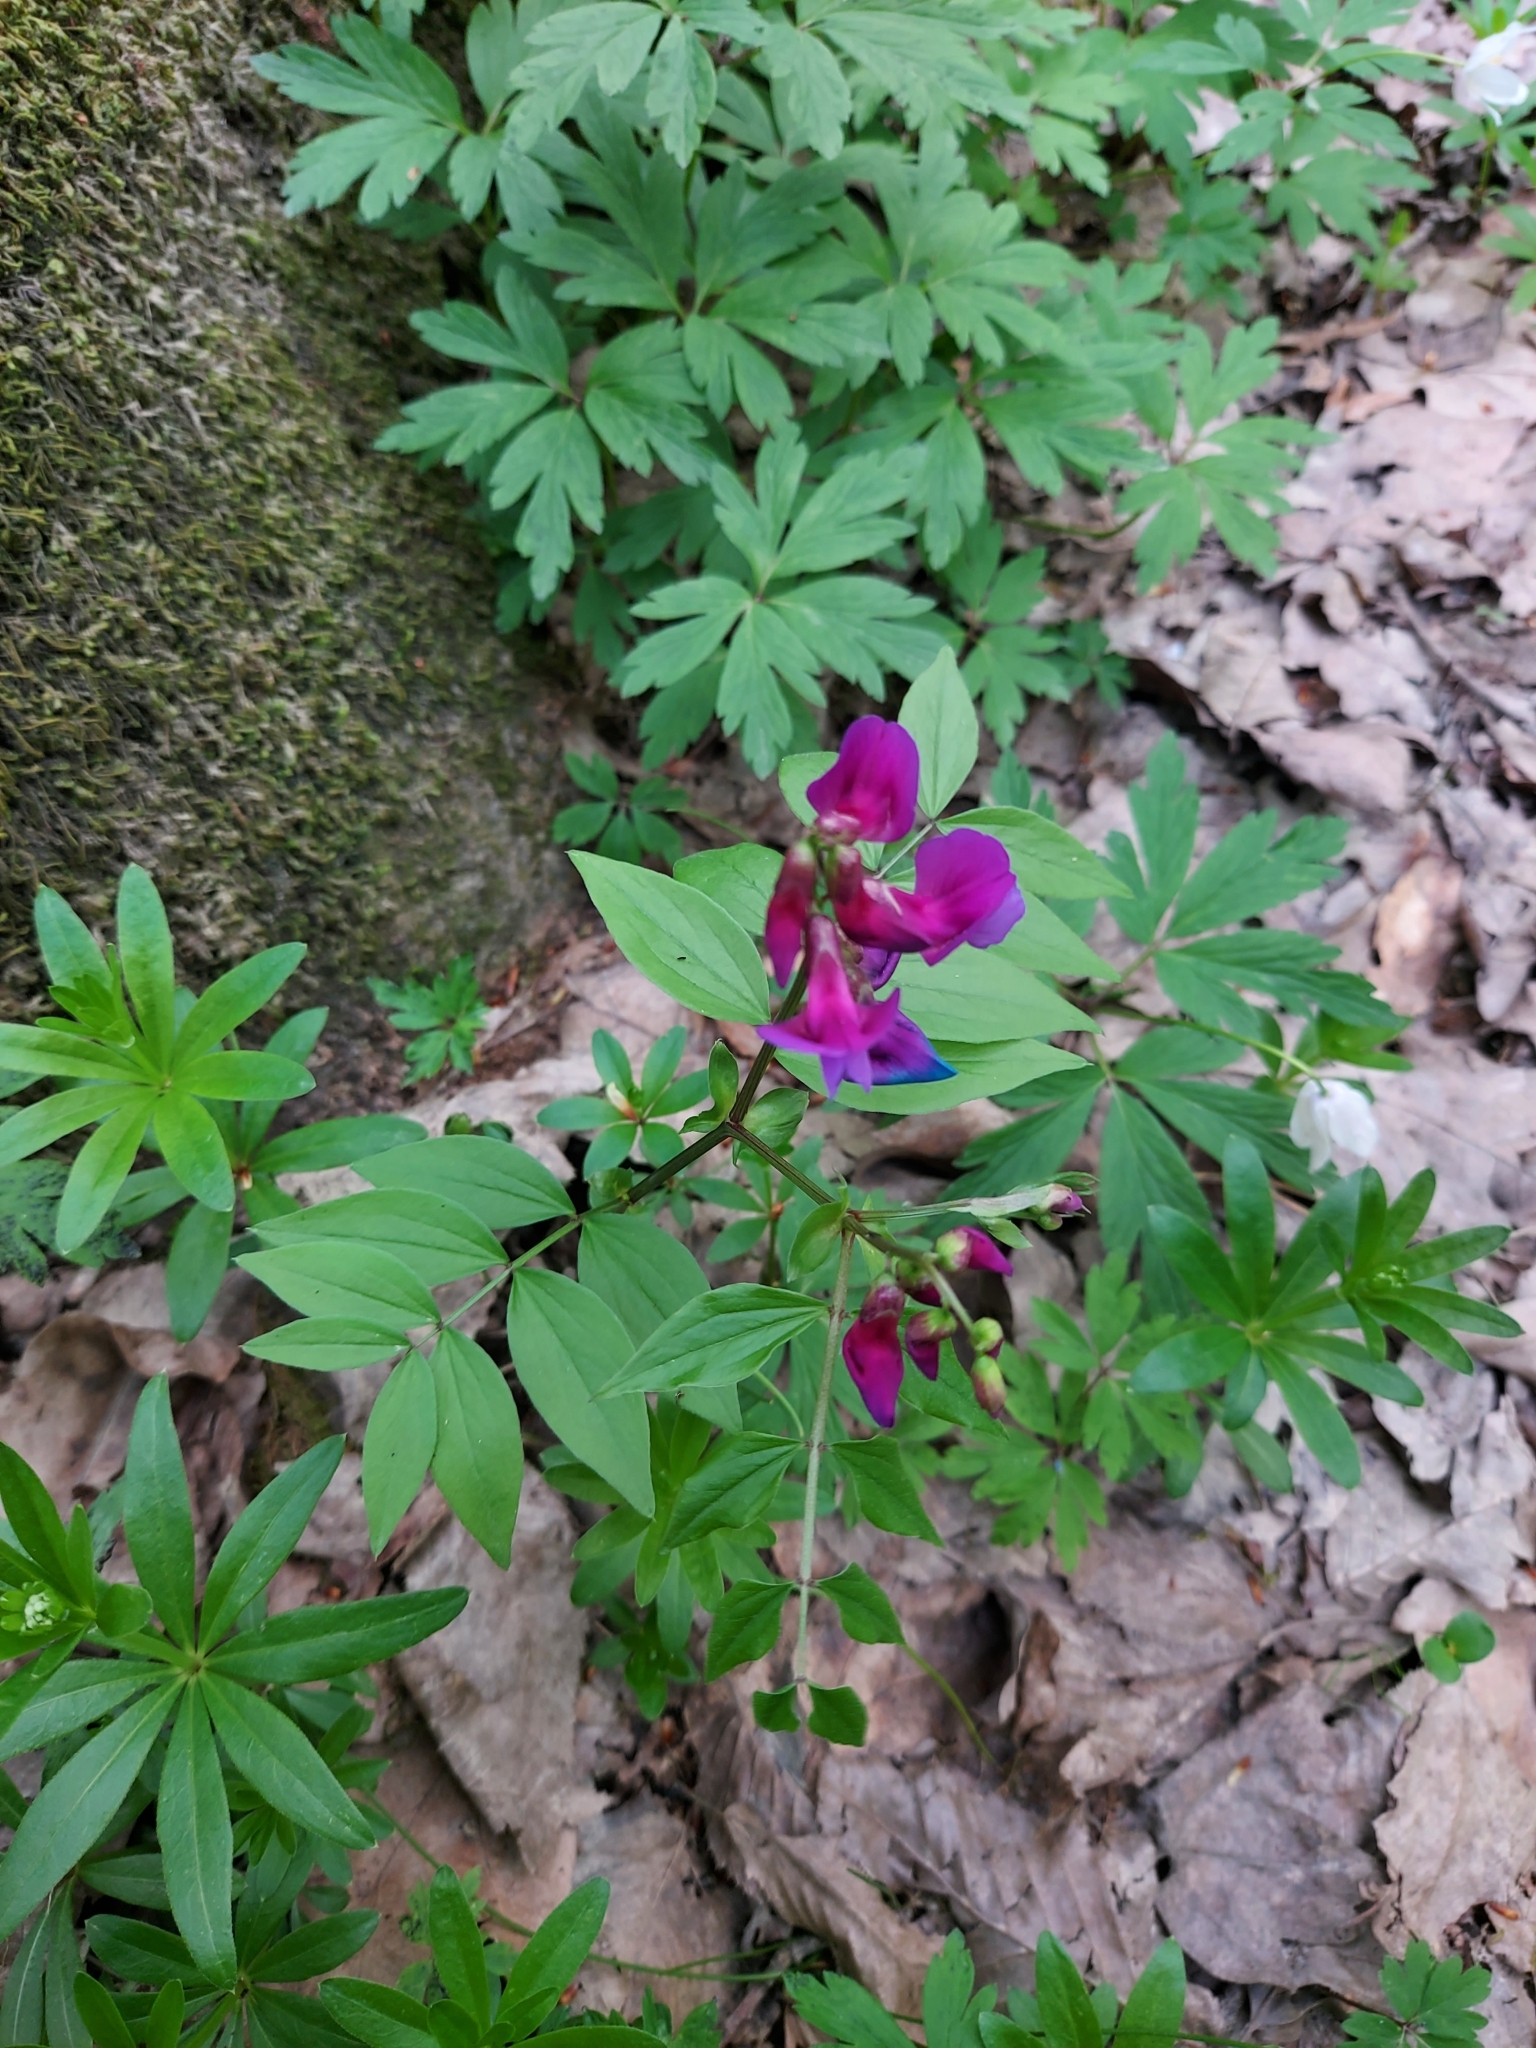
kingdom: Plantae
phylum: Tracheophyta
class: Magnoliopsida
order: Fabales
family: Fabaceae
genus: Lathyrus
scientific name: Lathyrus vernus
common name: Spring pea
